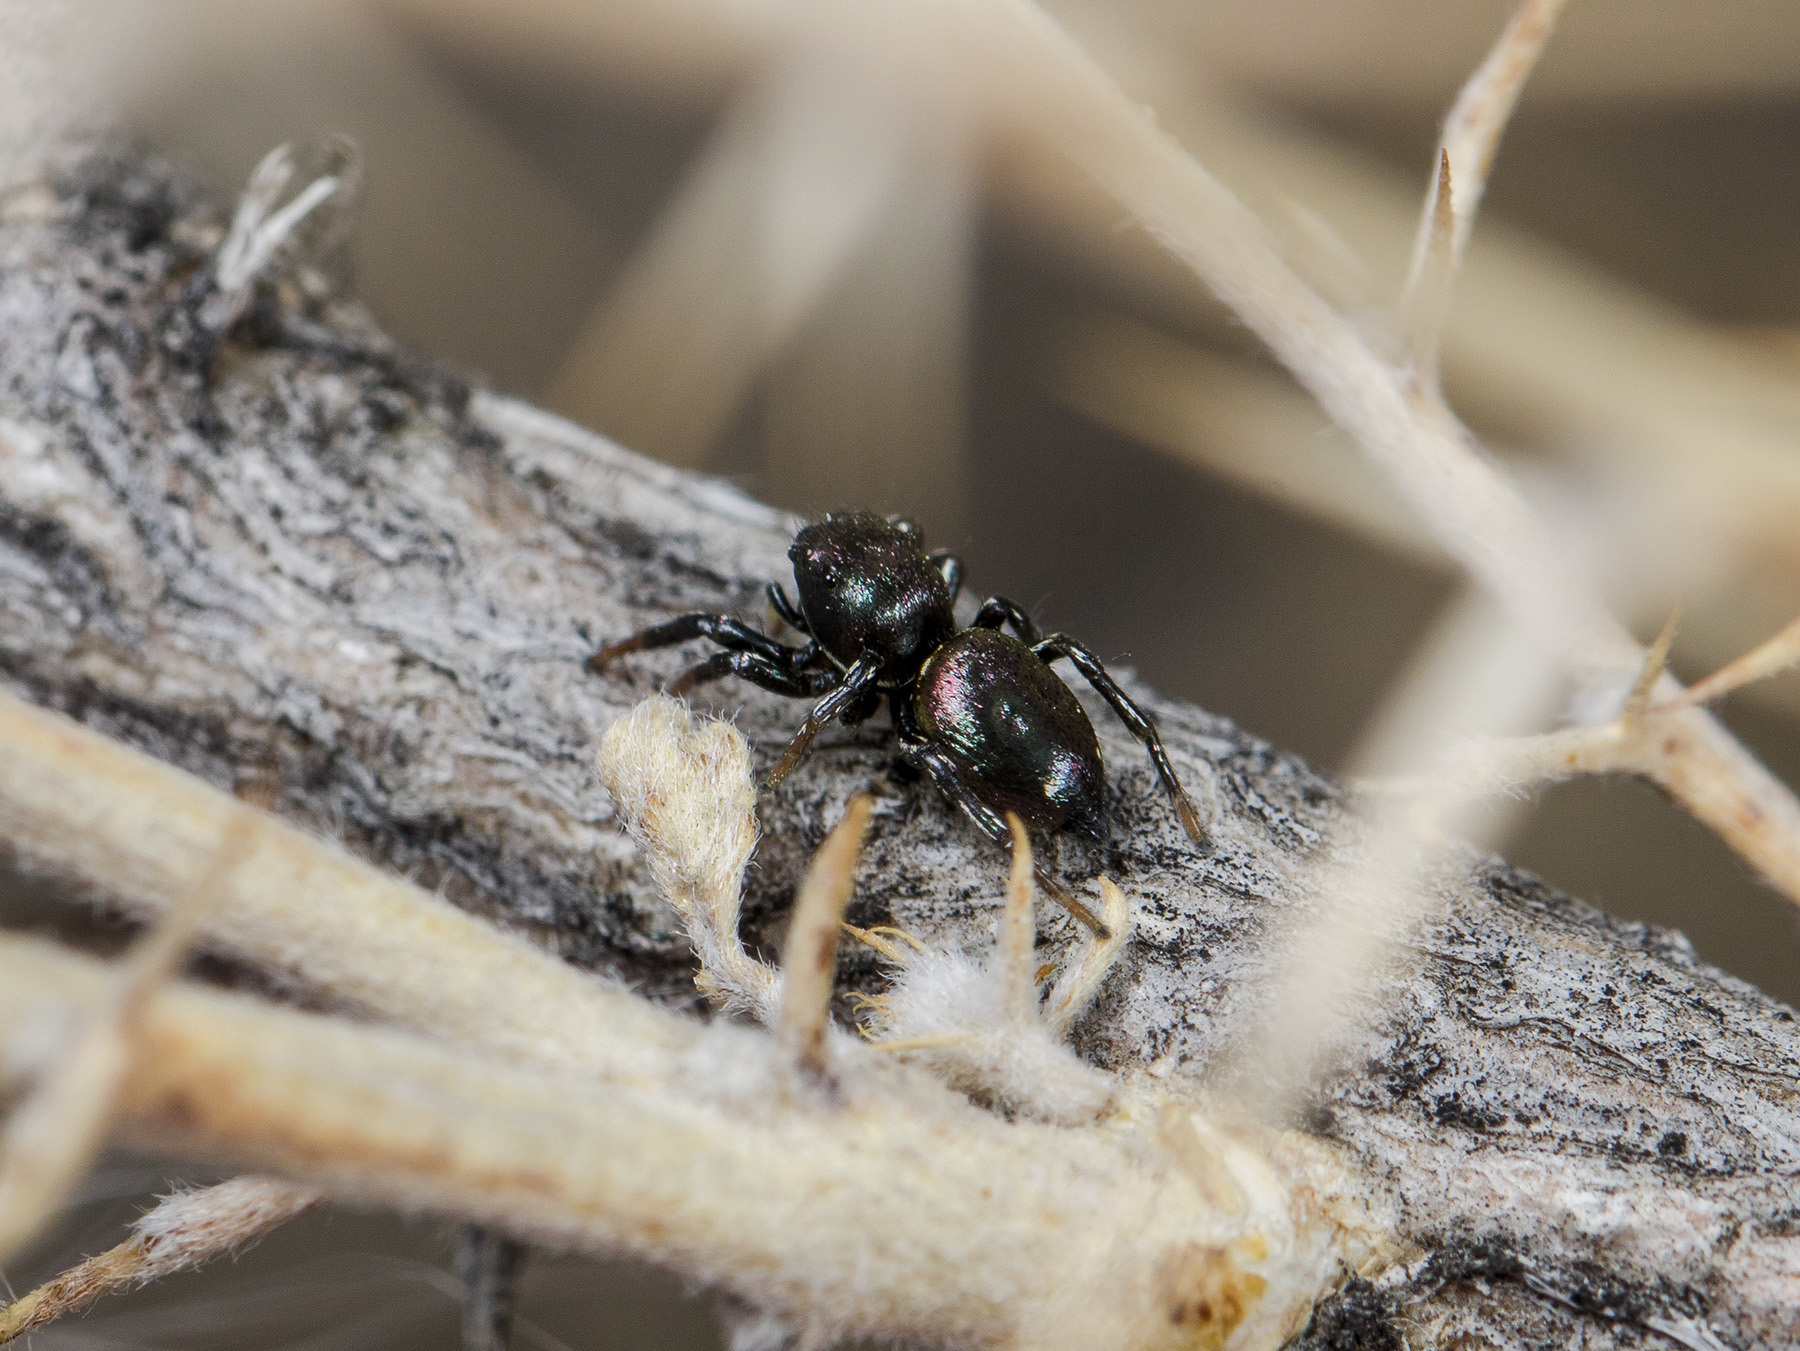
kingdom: Animalia
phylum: Arthropoda
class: Arachnida
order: Araneae
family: Salticidae
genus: Heliophanus
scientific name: Heliophanus chovdensis
